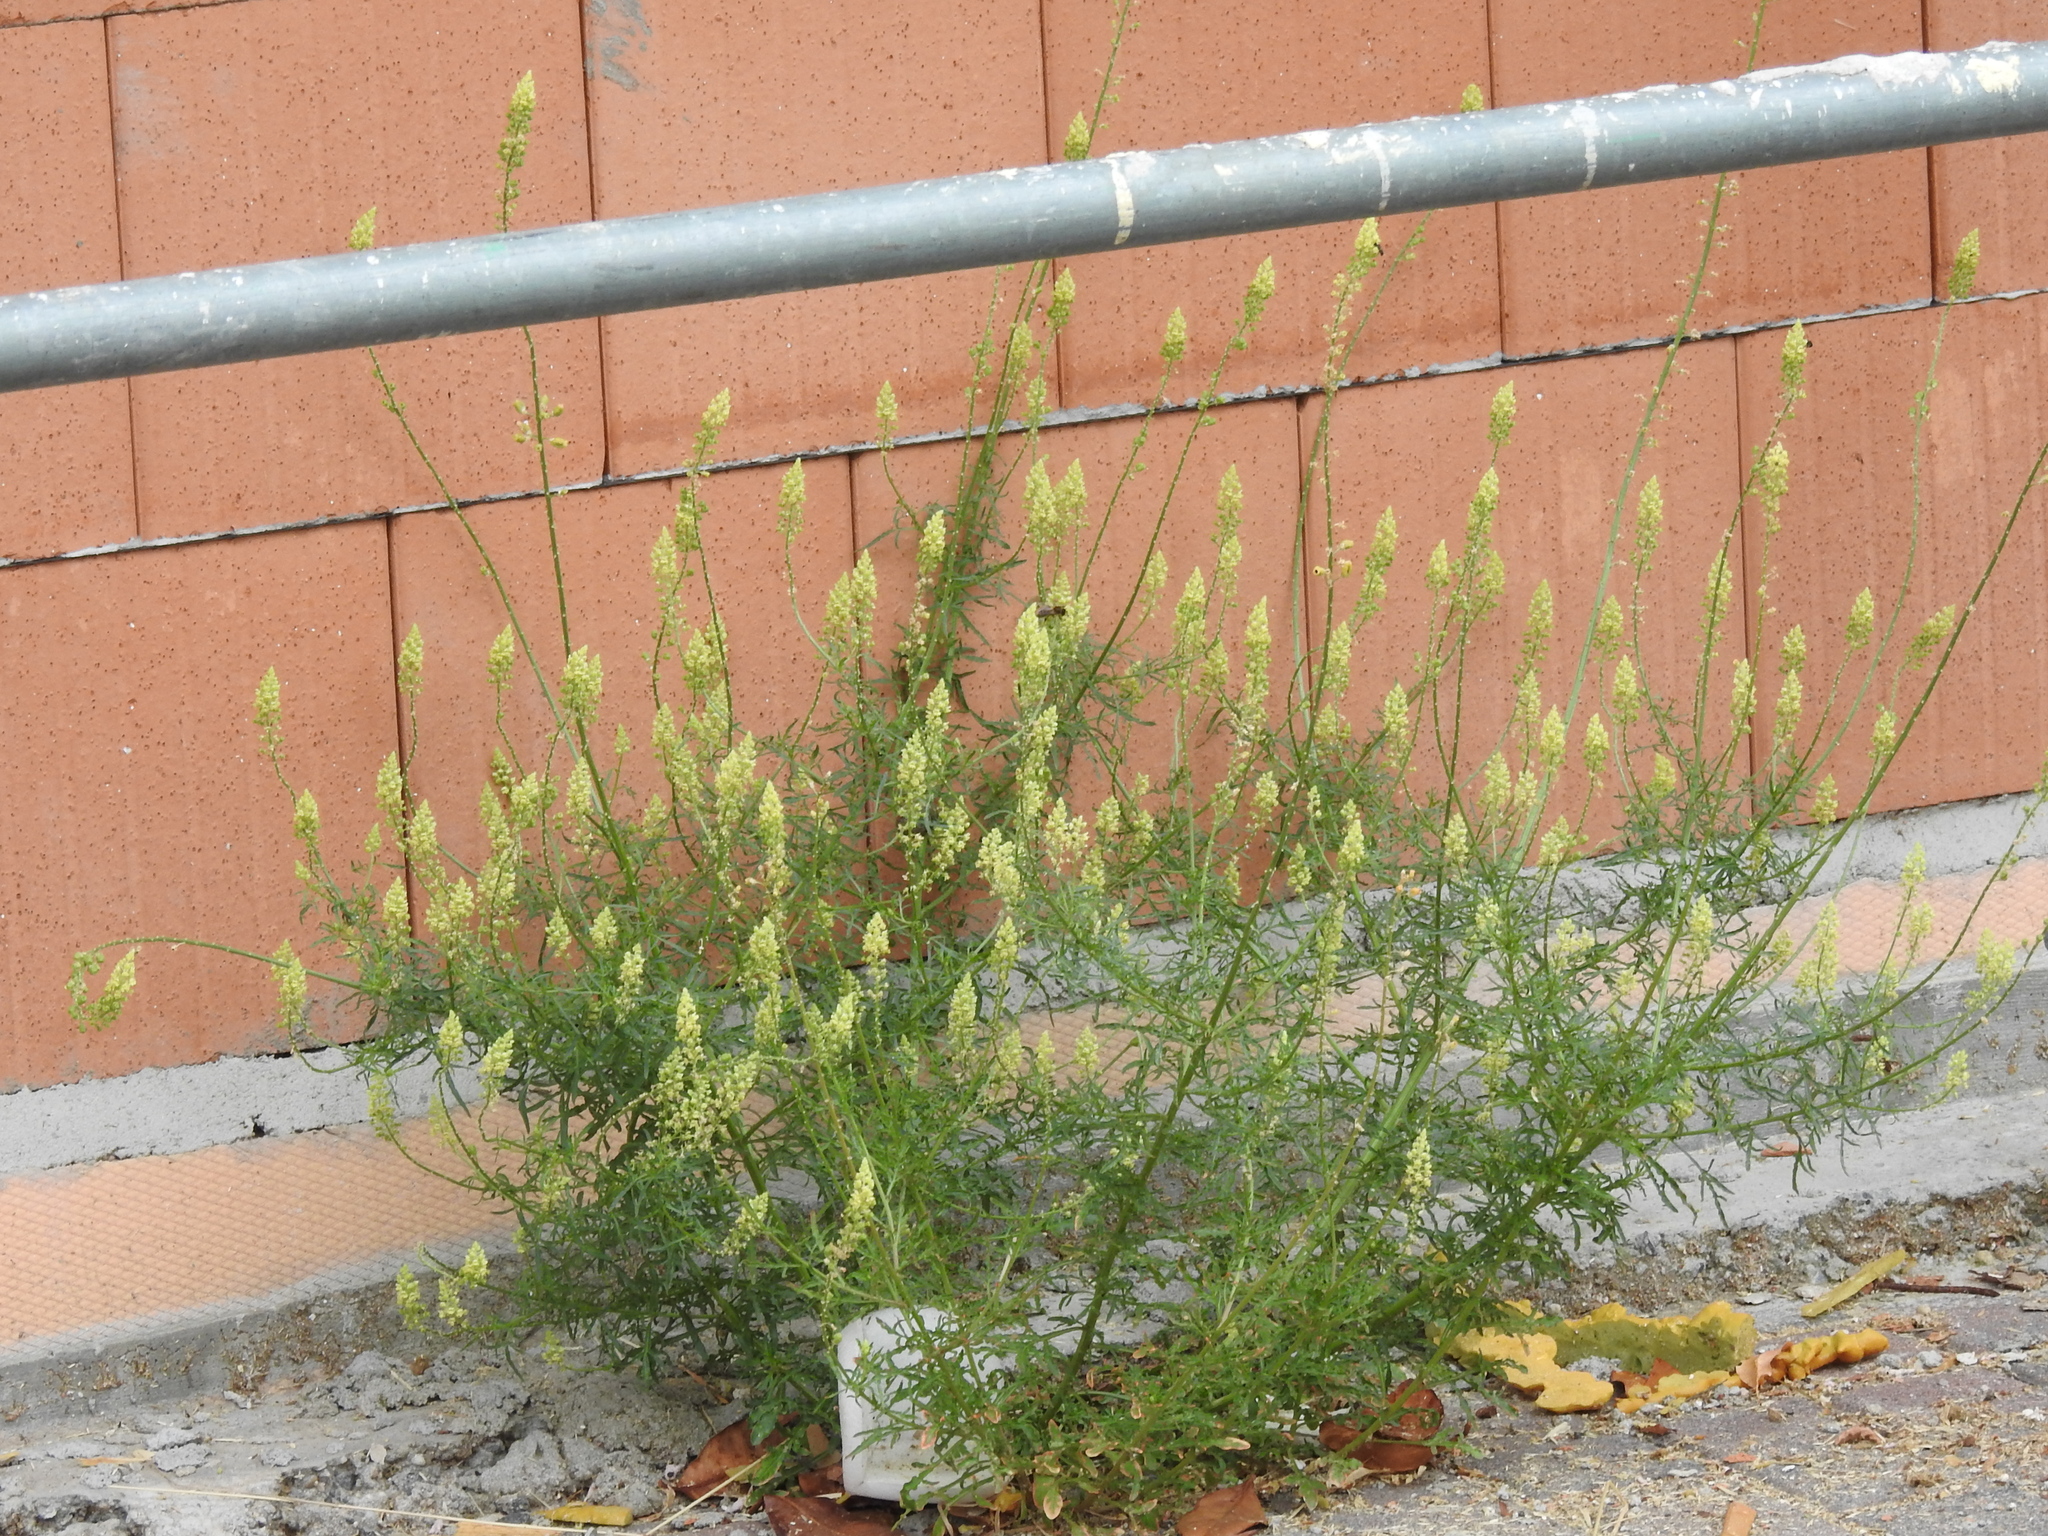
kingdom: Plantae
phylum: Tracheophyta
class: Magnoliopsida
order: Brassicales
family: Resedaceae
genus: Reseda
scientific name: Reseda lutea
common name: Wild mignonette
